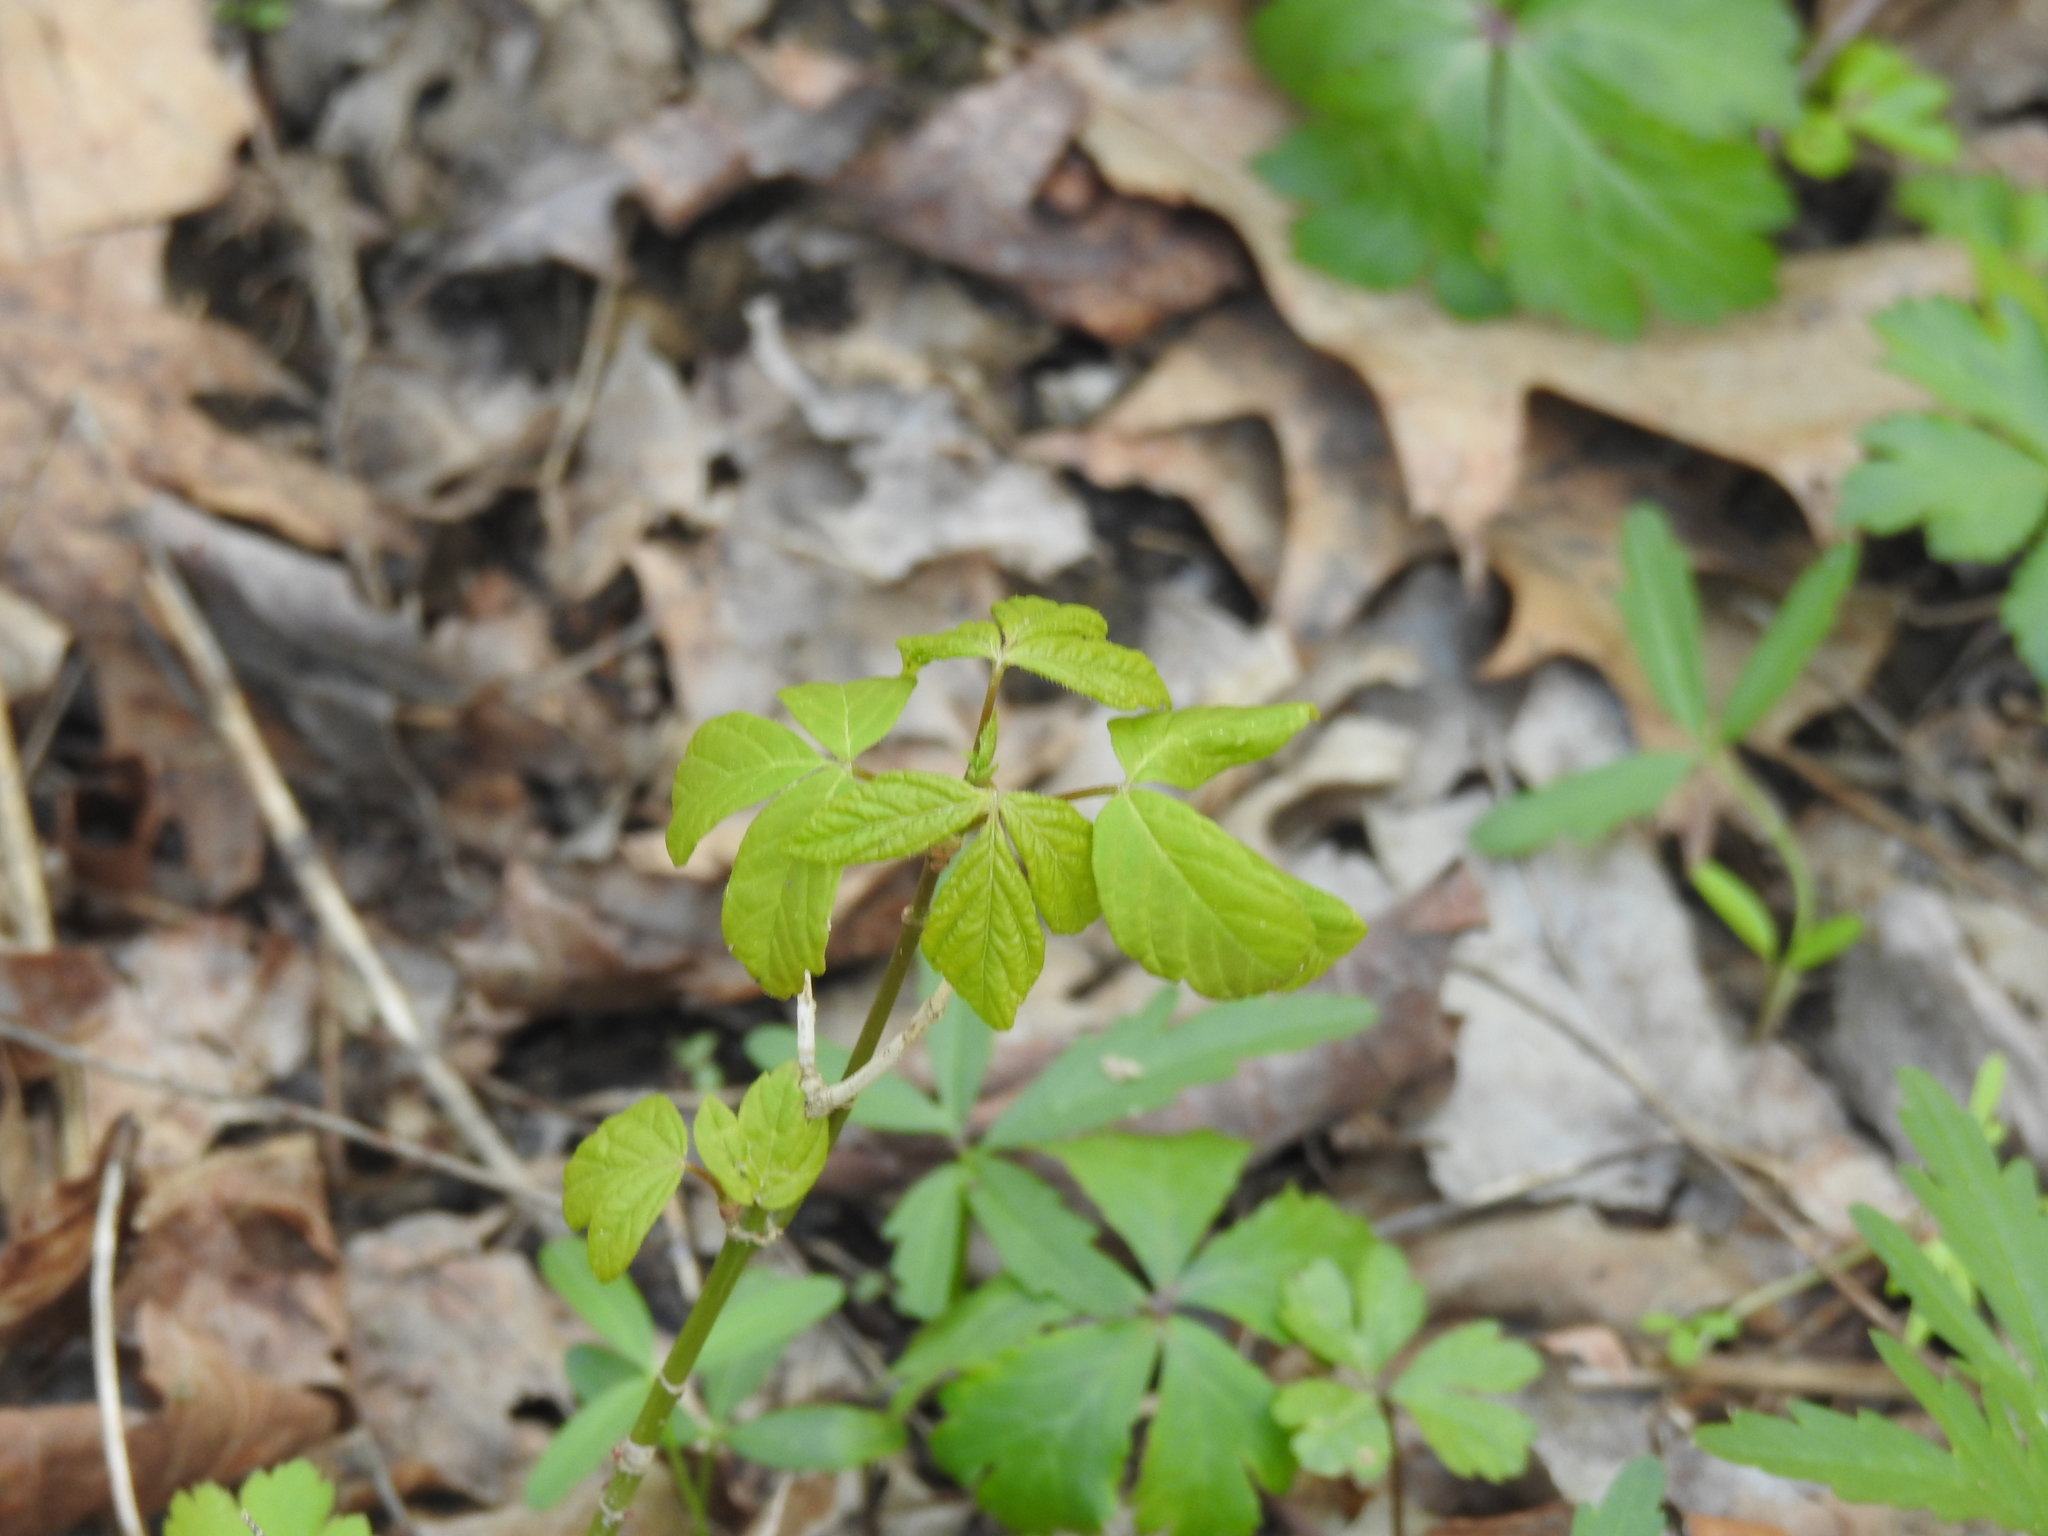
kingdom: Plantae
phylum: Tracheophyta
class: Magnoliopsida
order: Sapindales
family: Anacardiaceae
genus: Toxicodendron
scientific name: Toxicodendron radicans
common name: Poison ivy
